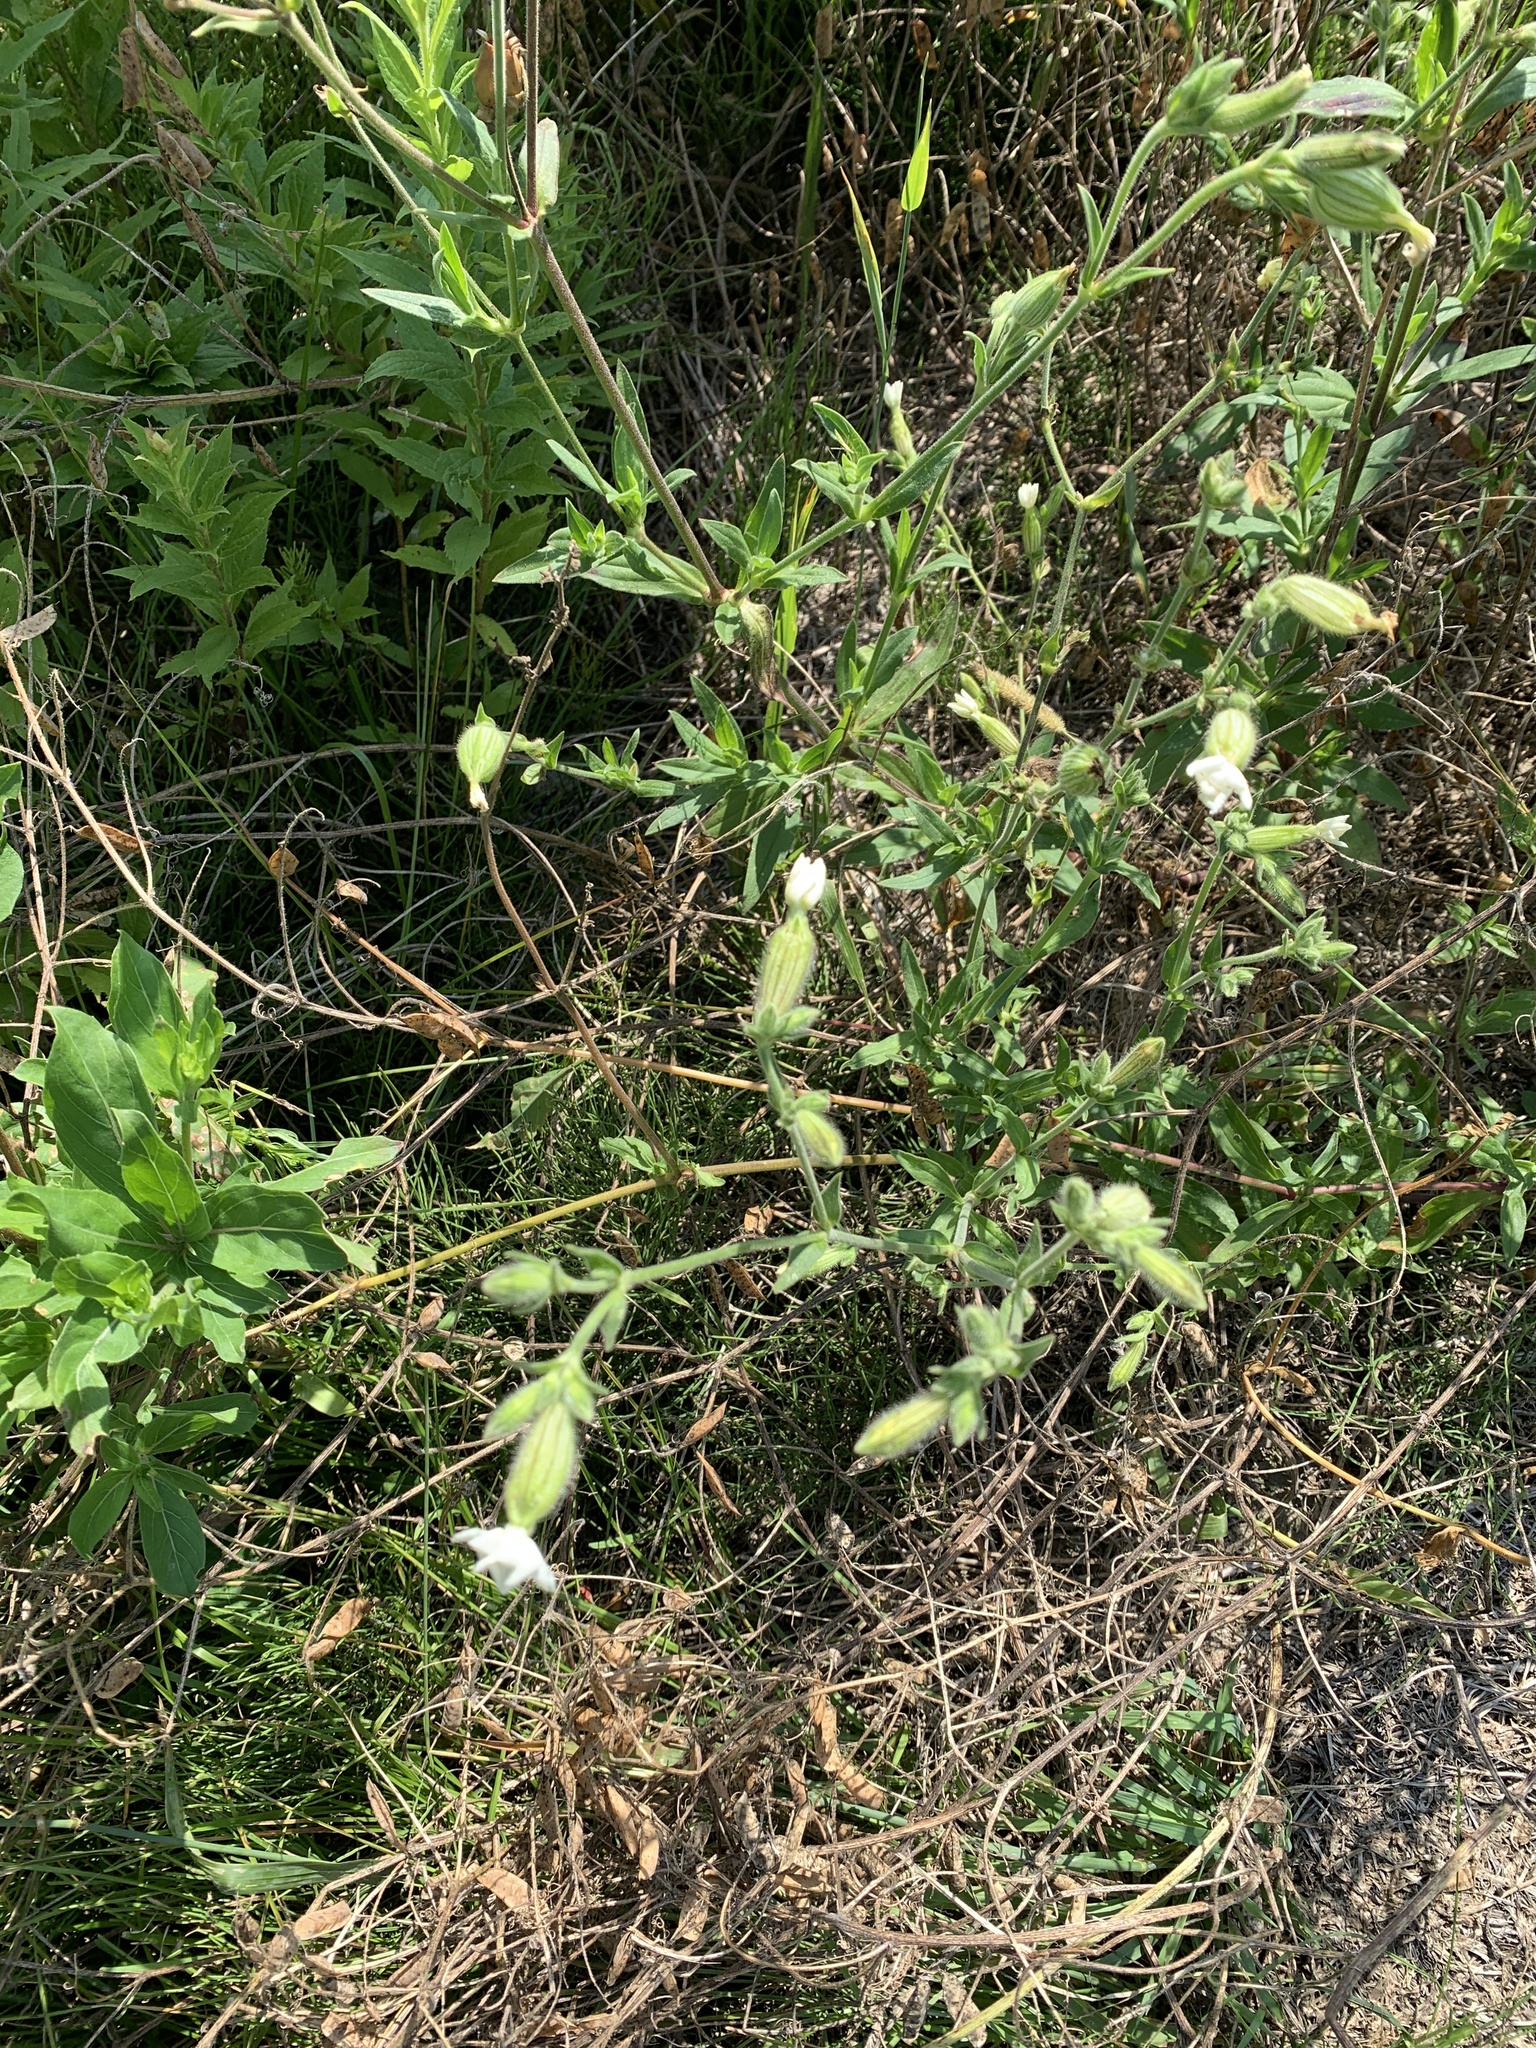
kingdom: Plantae
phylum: Tracheophyta
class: Magnoliopsida
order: Caryophyllales
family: Caryophyllaceae
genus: Silene
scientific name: Silene latifolia
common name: White campion
